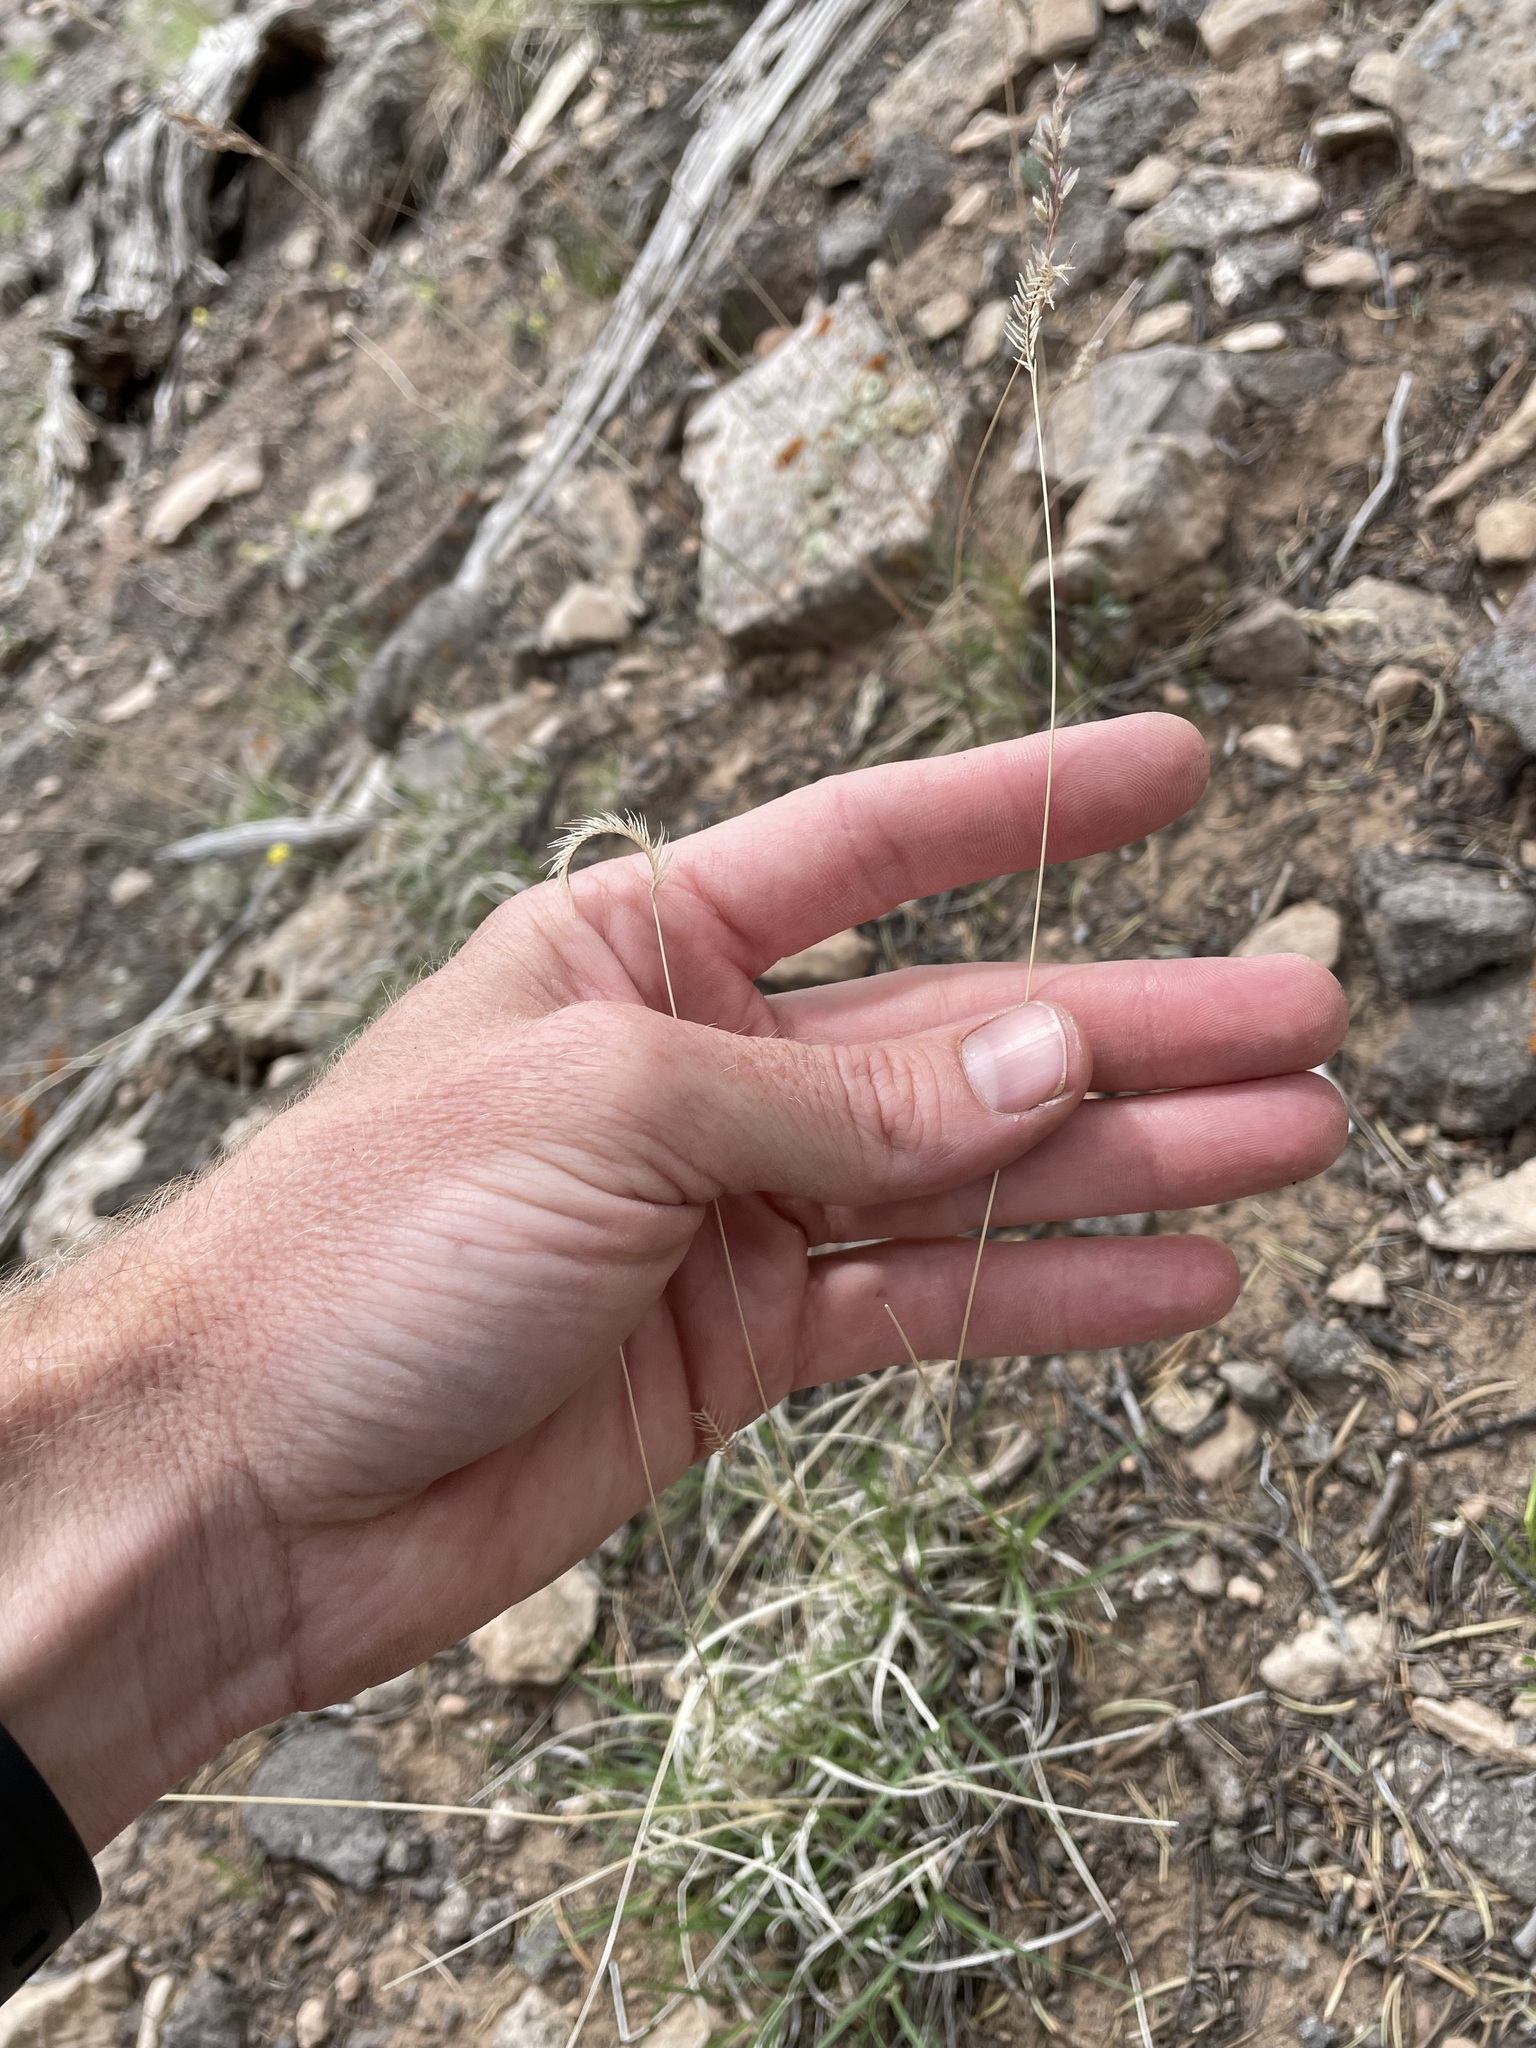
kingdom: Plantae
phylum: Tracheophyta
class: Liliopsida
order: Poales
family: Poaceae
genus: Bouteloua
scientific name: Bouteloua gracilis
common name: Blue grama
